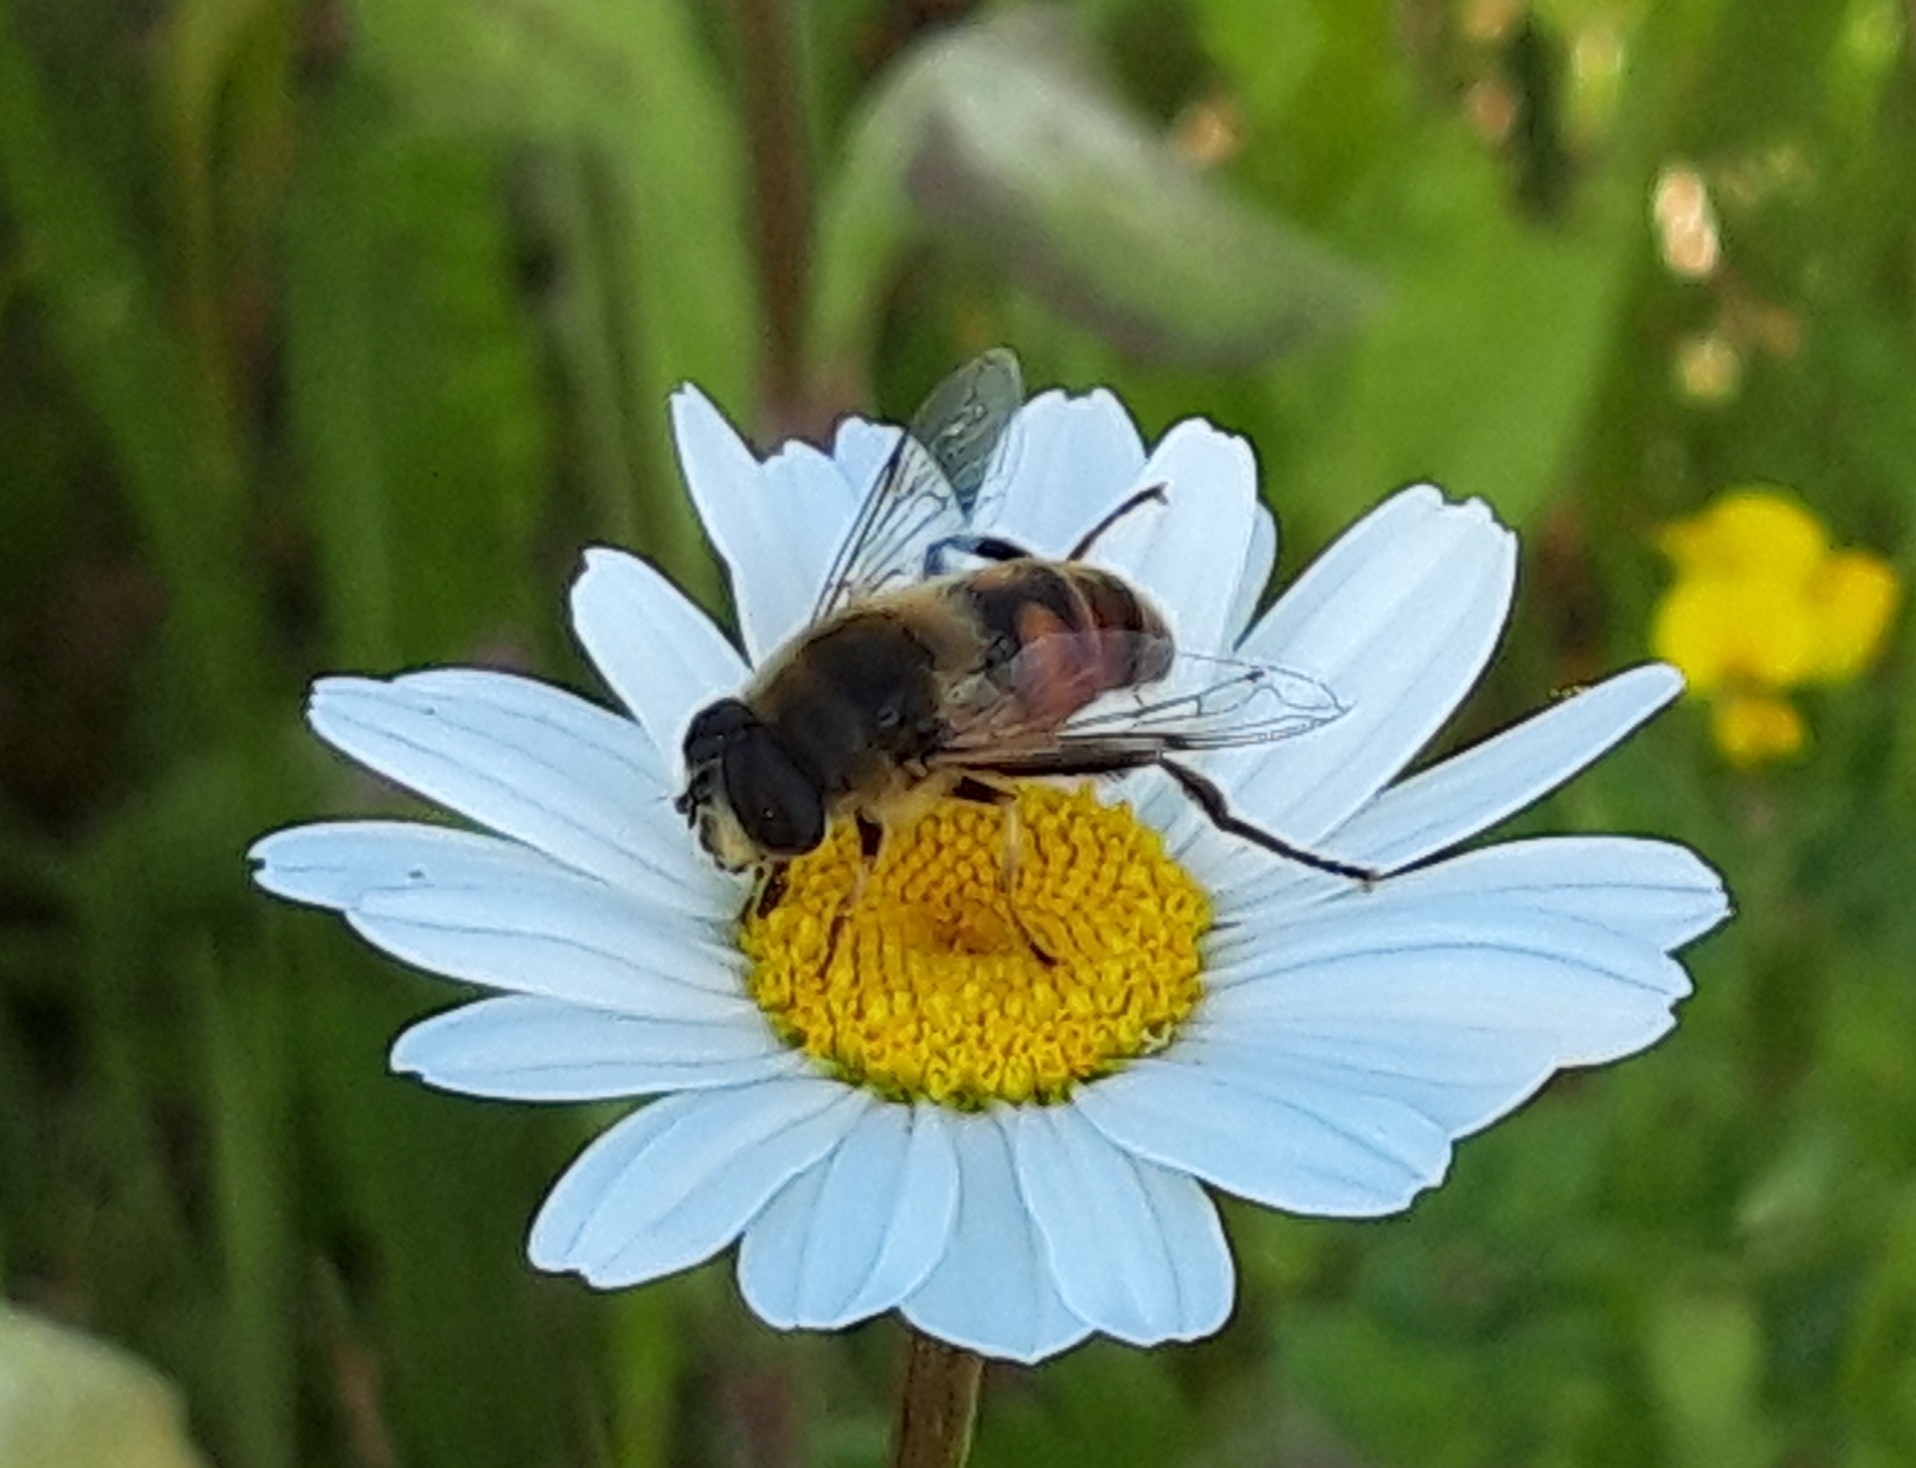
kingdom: Animalia
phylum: Arthropoda
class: Insecta
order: Diptera
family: Syrphidae
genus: Eristalis
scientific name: Eristalis tenax
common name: Drone fly
